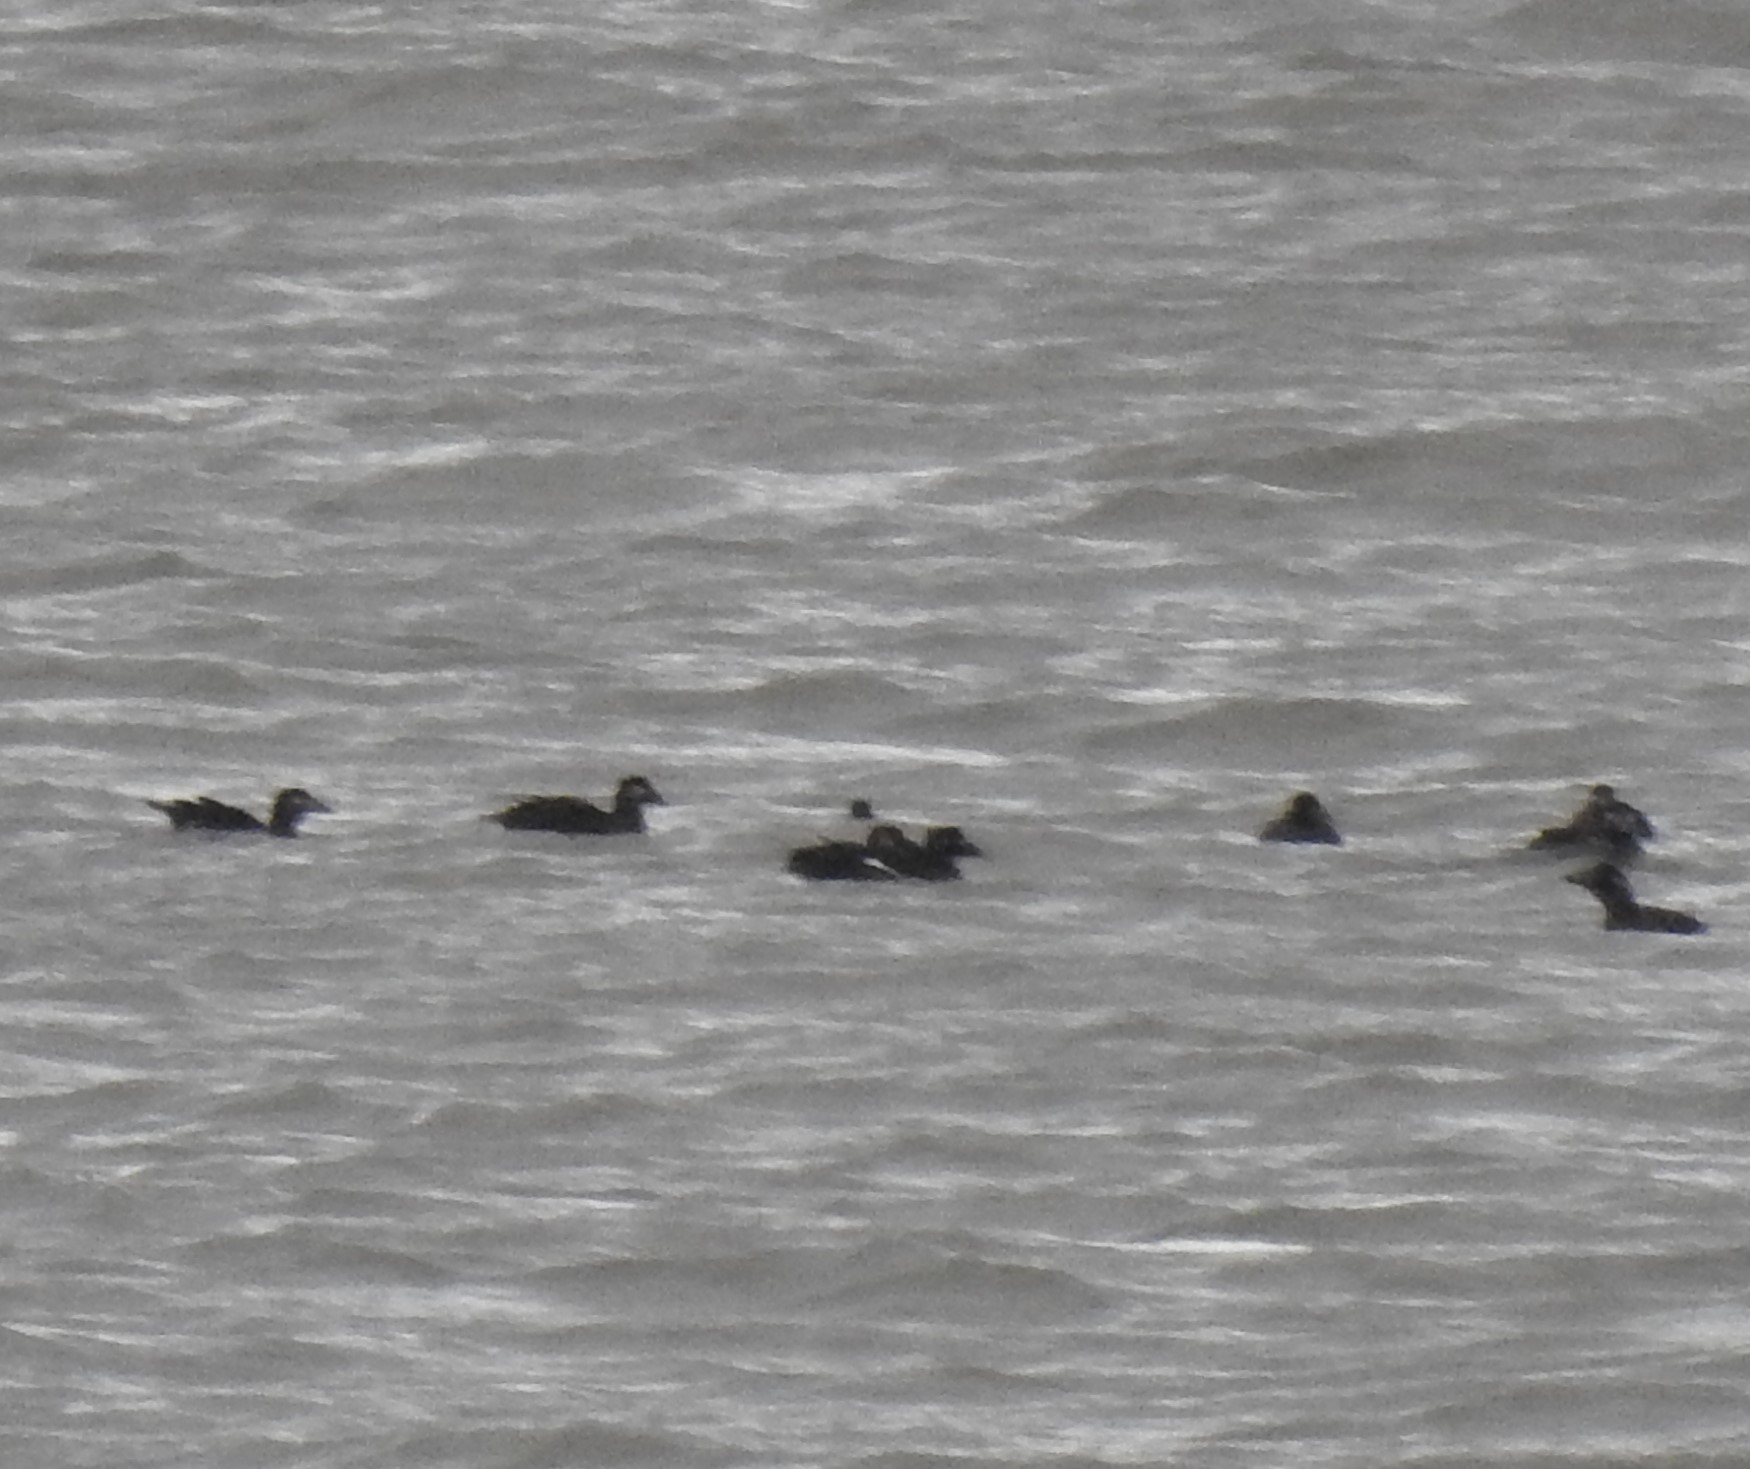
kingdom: Animalia
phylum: Chordata
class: Aves
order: Anseriformes
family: Anatidae
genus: Melanitta
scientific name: Melanitta deglandi
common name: White-winged scoter
